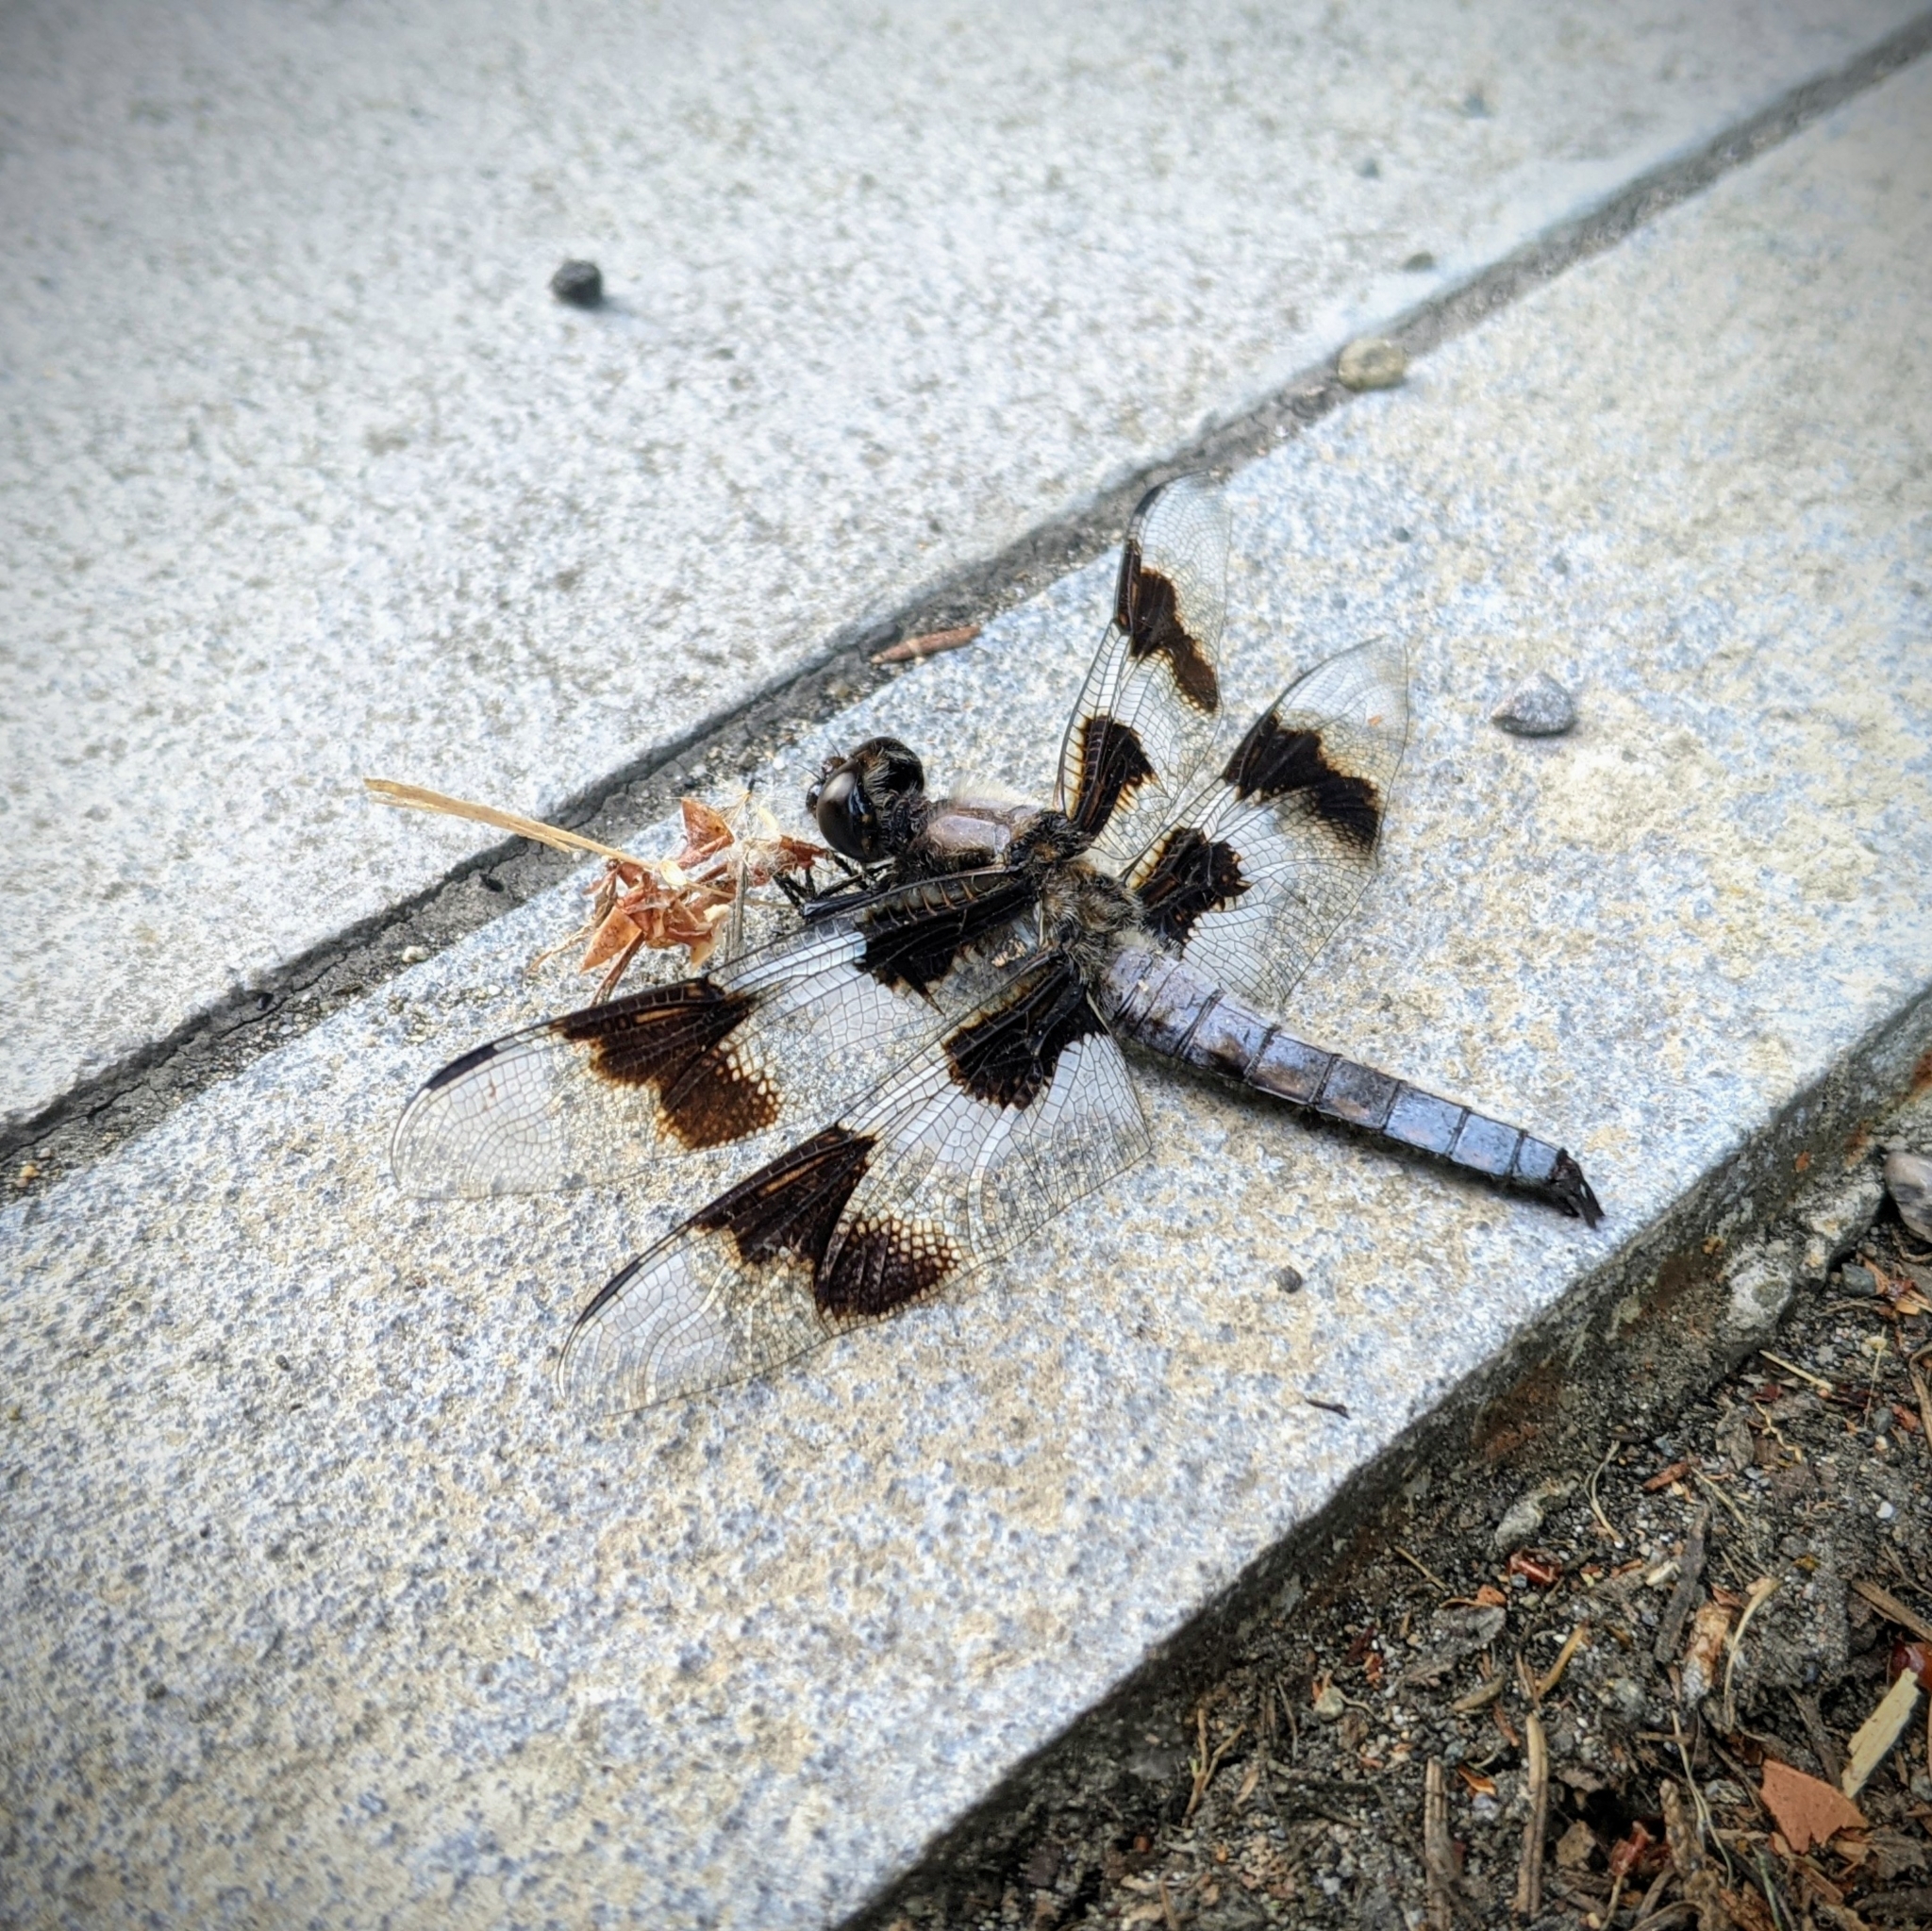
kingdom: Animalia
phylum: Arthropoda
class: Insecta
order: Odonata
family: Libellulidae
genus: Libellula
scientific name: Libellula forensis
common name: Eight-spotted skimmer
